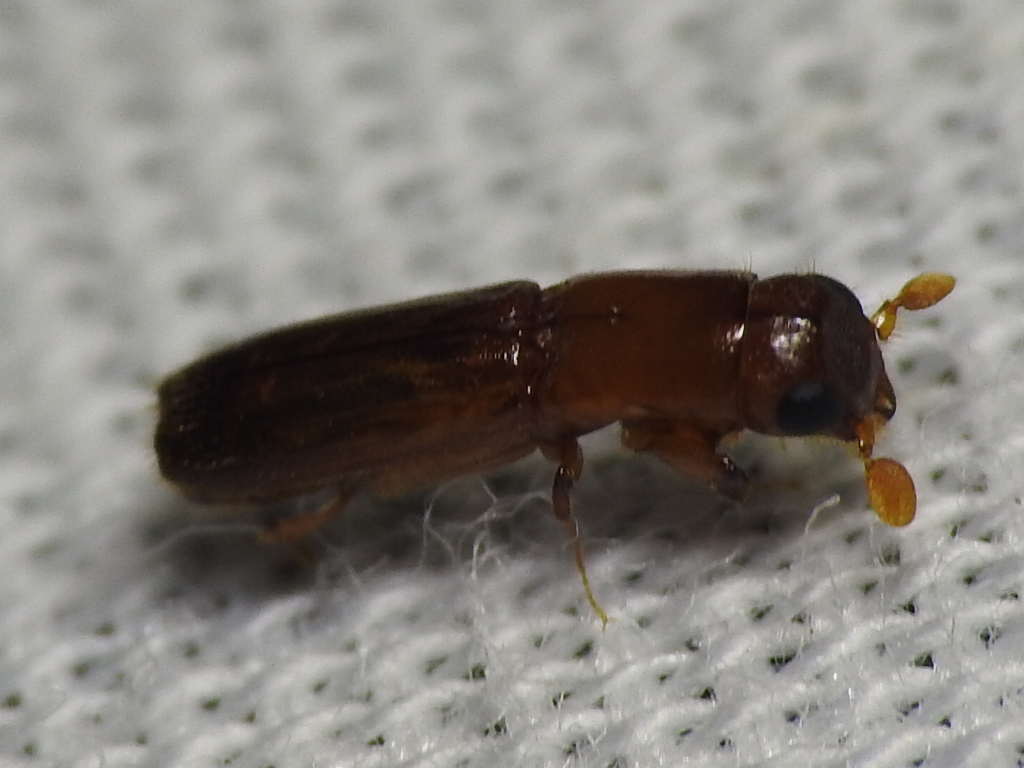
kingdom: Animalia
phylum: Arthropoda
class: Insecta
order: Coleoptera
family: Curculionidae
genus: Euplatypus
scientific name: Euplatypus compositus
